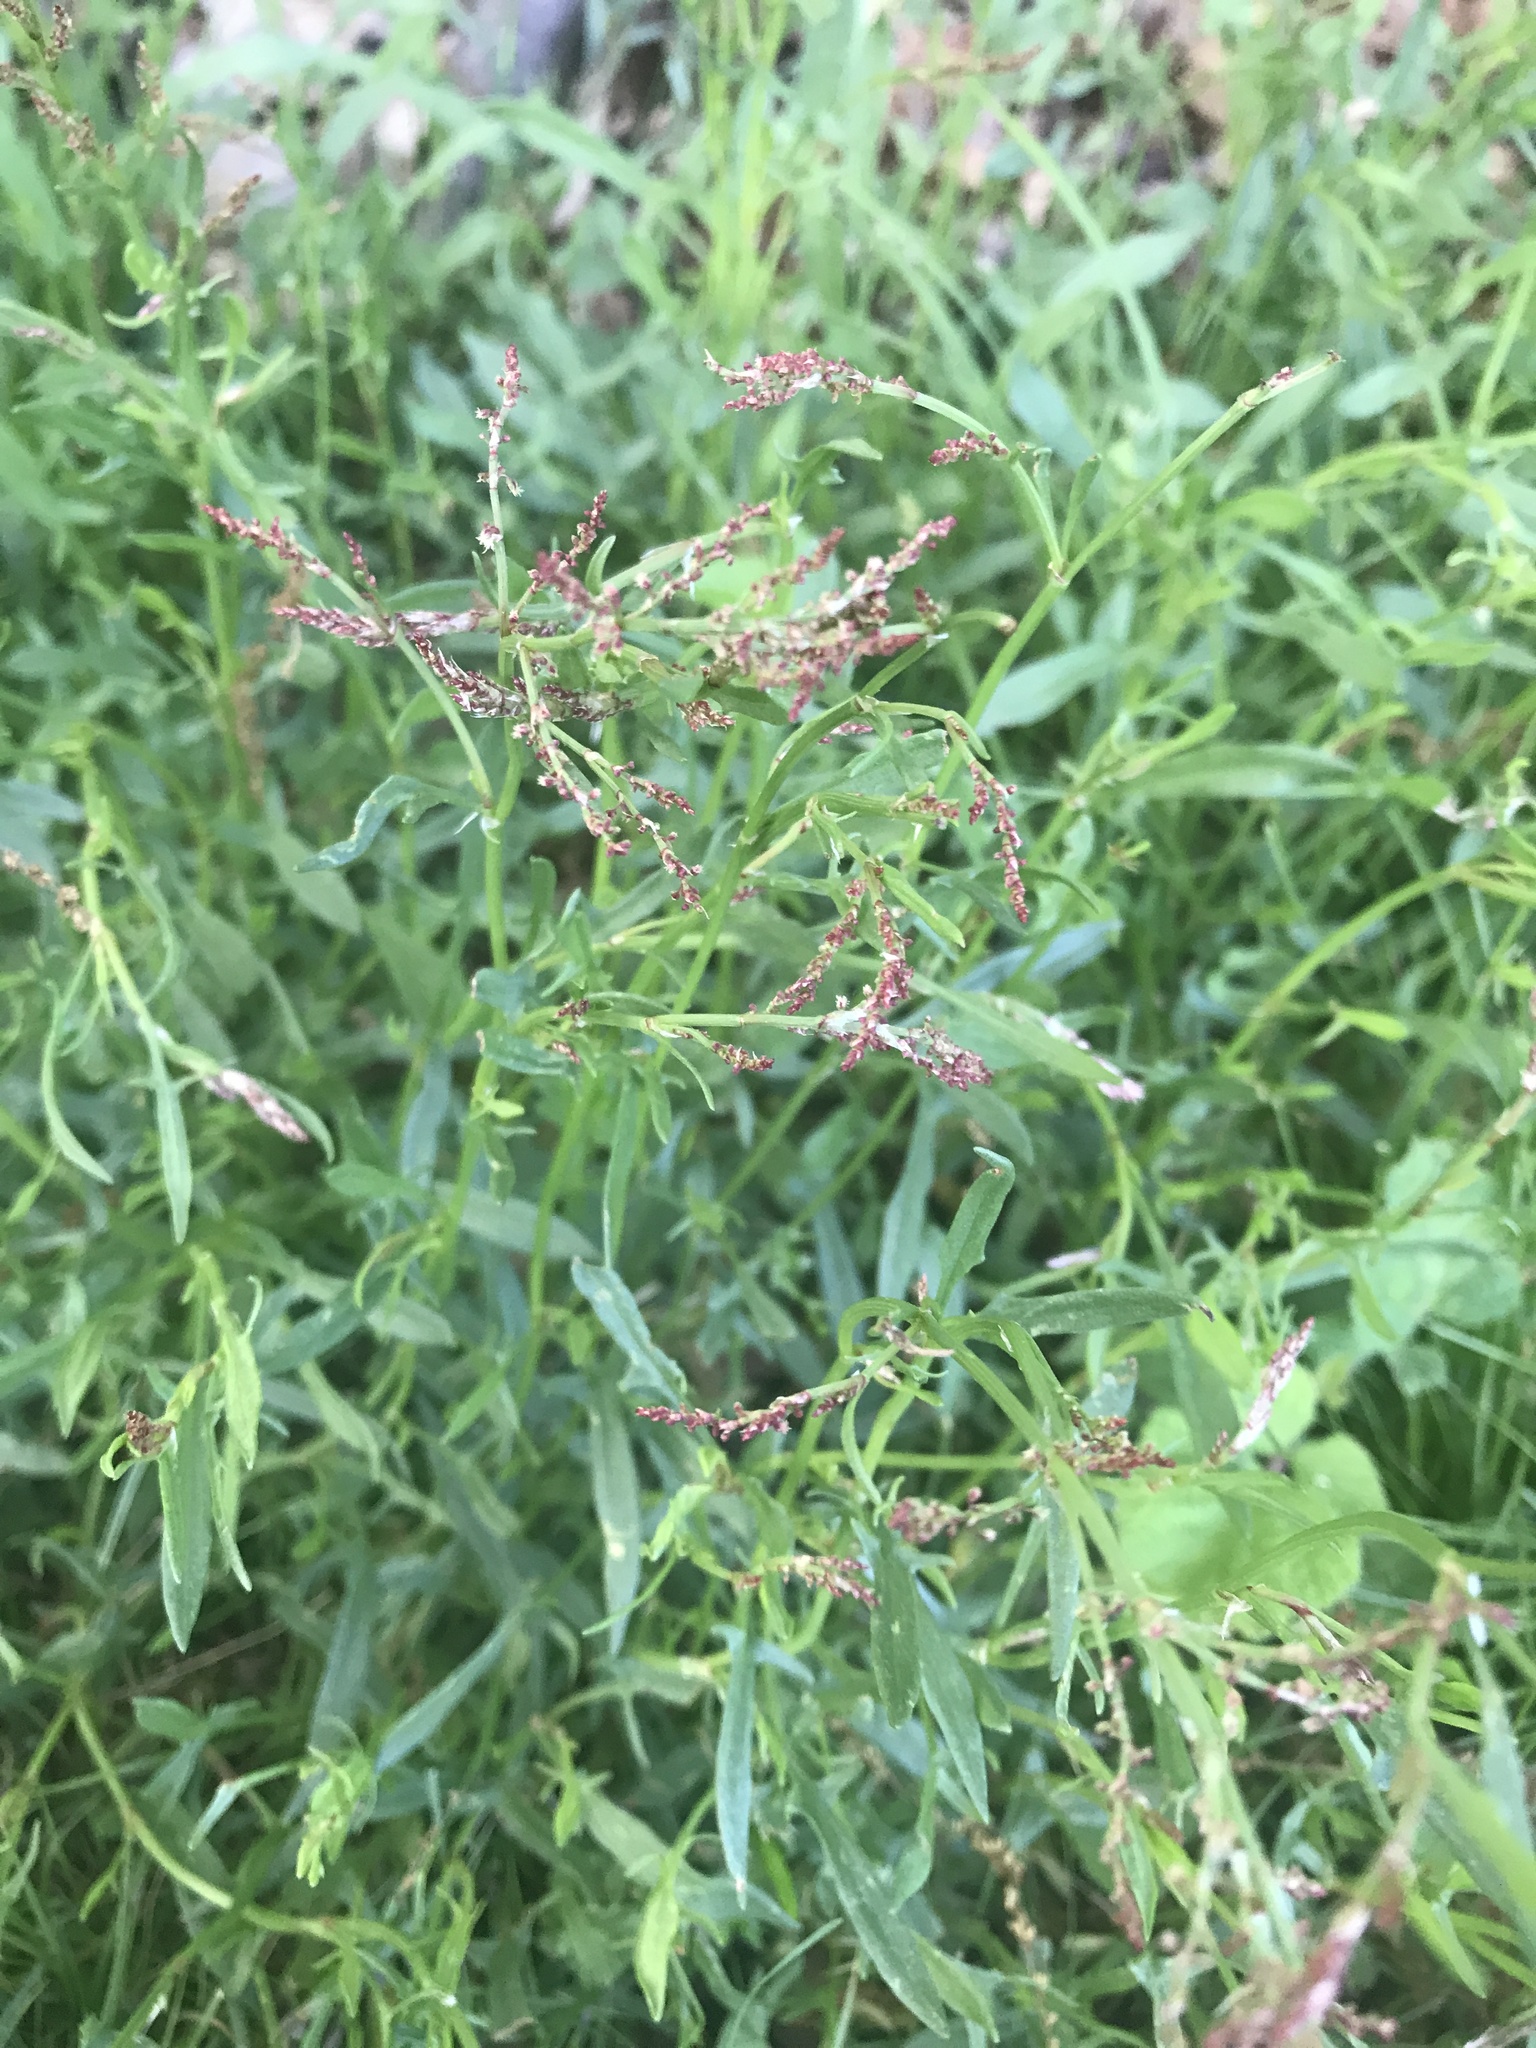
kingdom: Plantae
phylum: Tracheophyta
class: Magnoliopsida
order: Caryophyllales
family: Polygonaceae
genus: Rumex
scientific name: Rumex acetosella
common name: Common sheep sorrel
